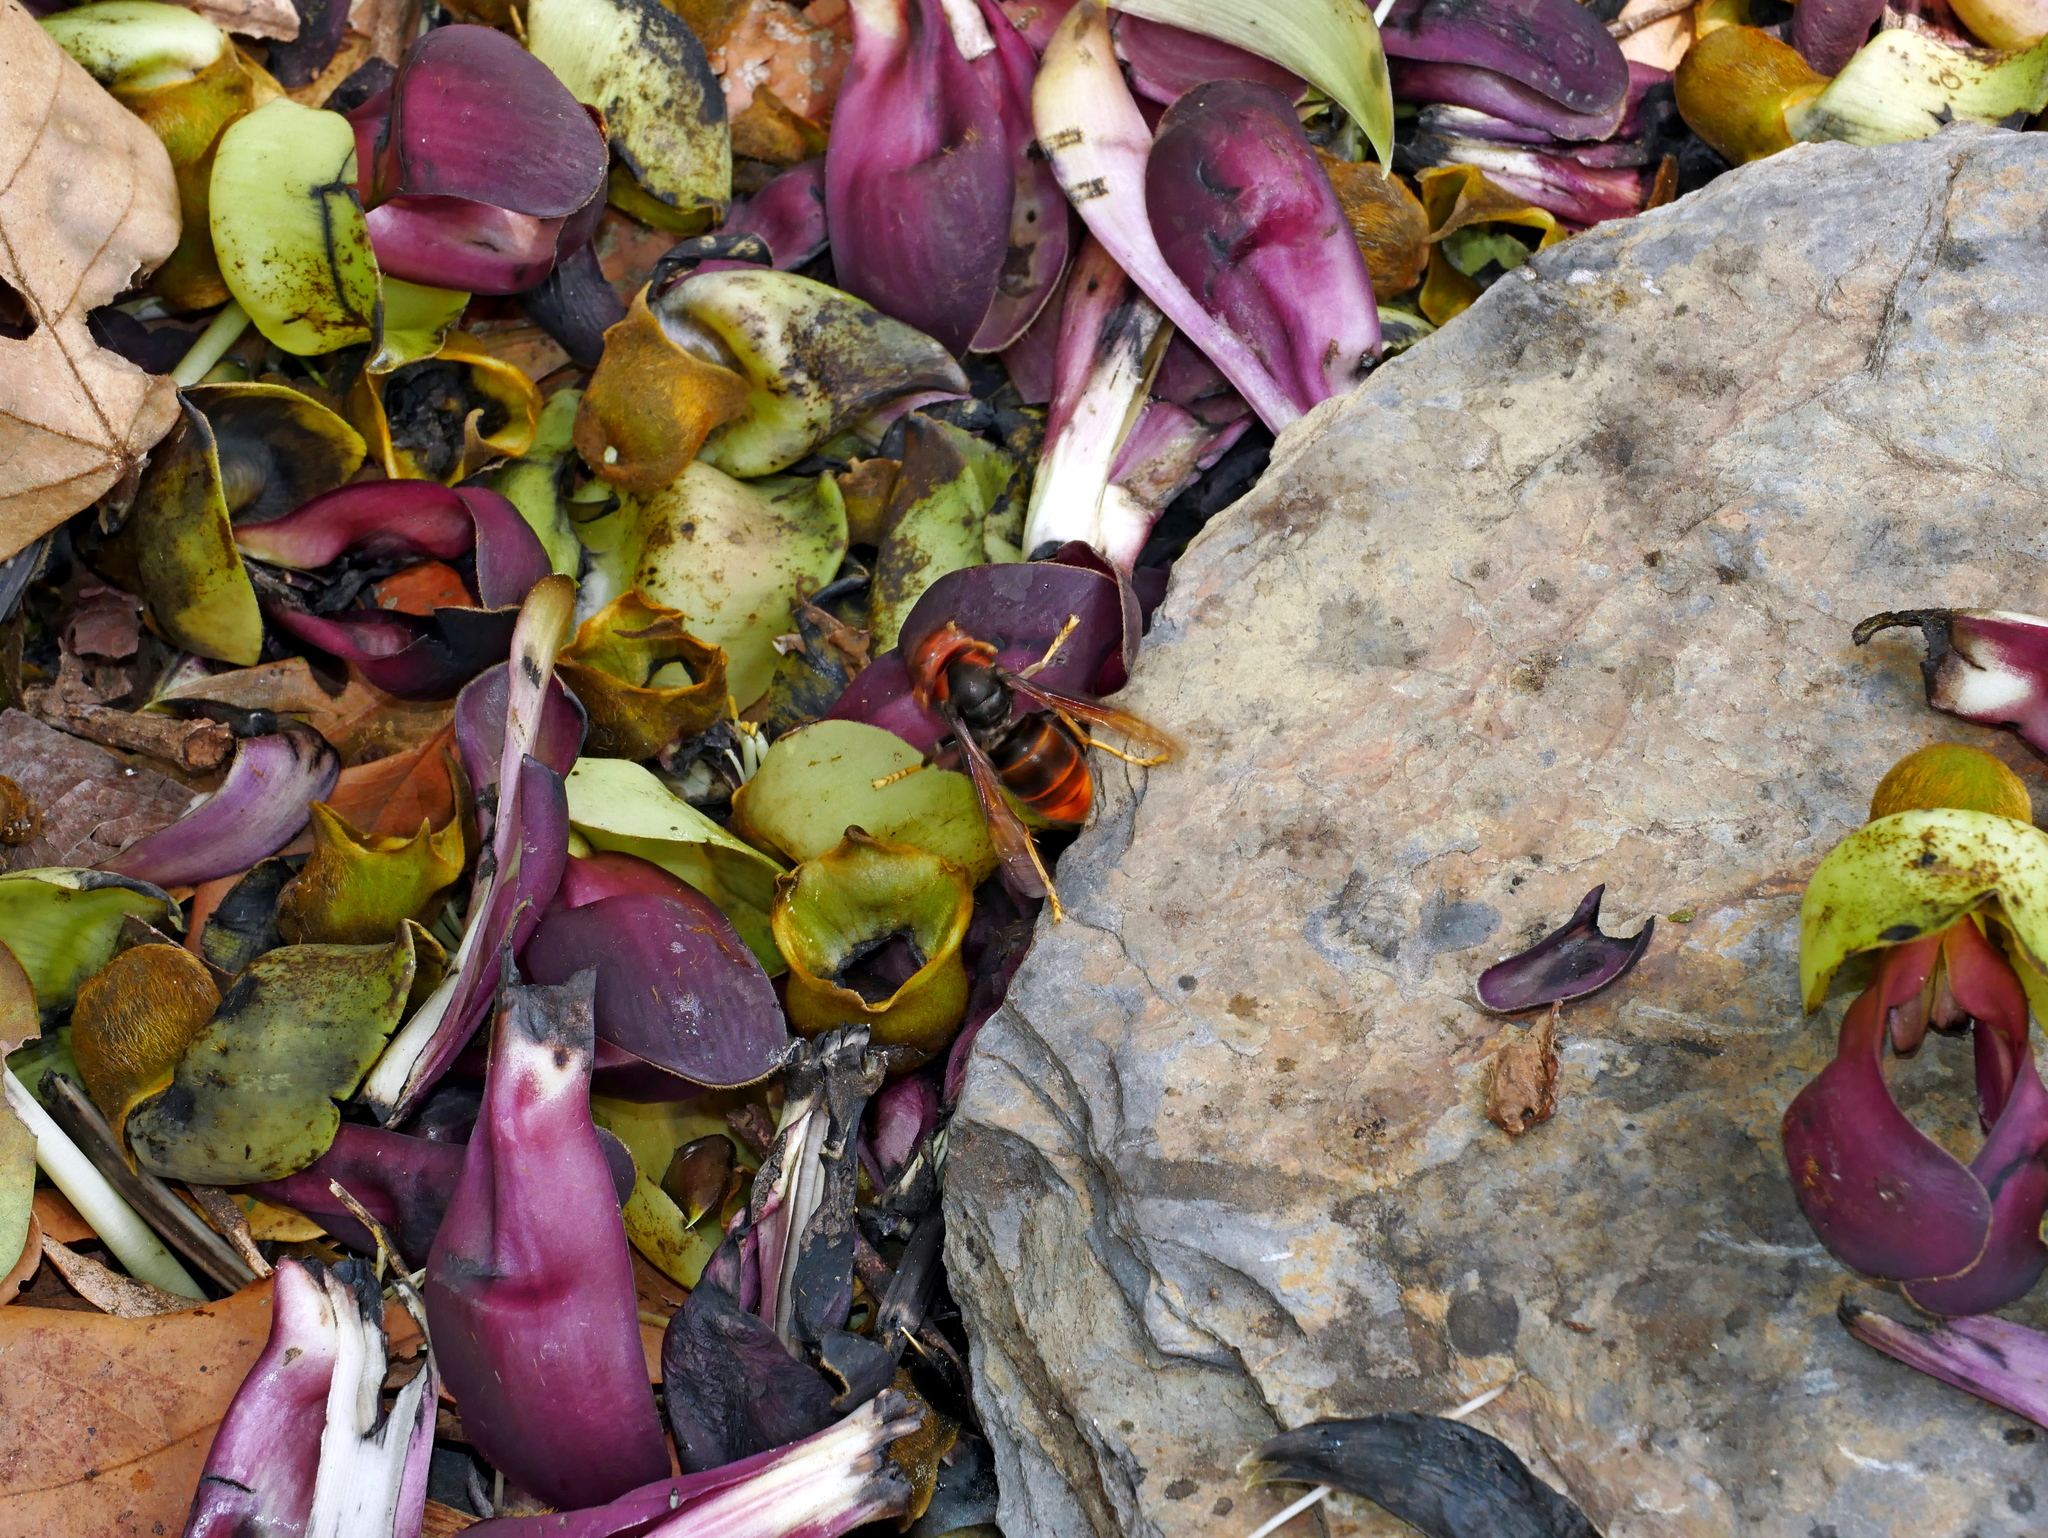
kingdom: Animalia
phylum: Arthropoda
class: Insecta
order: Hymenoptera
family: Vespidae
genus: Vespa
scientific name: Vespa velutina
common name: Asian hornet
